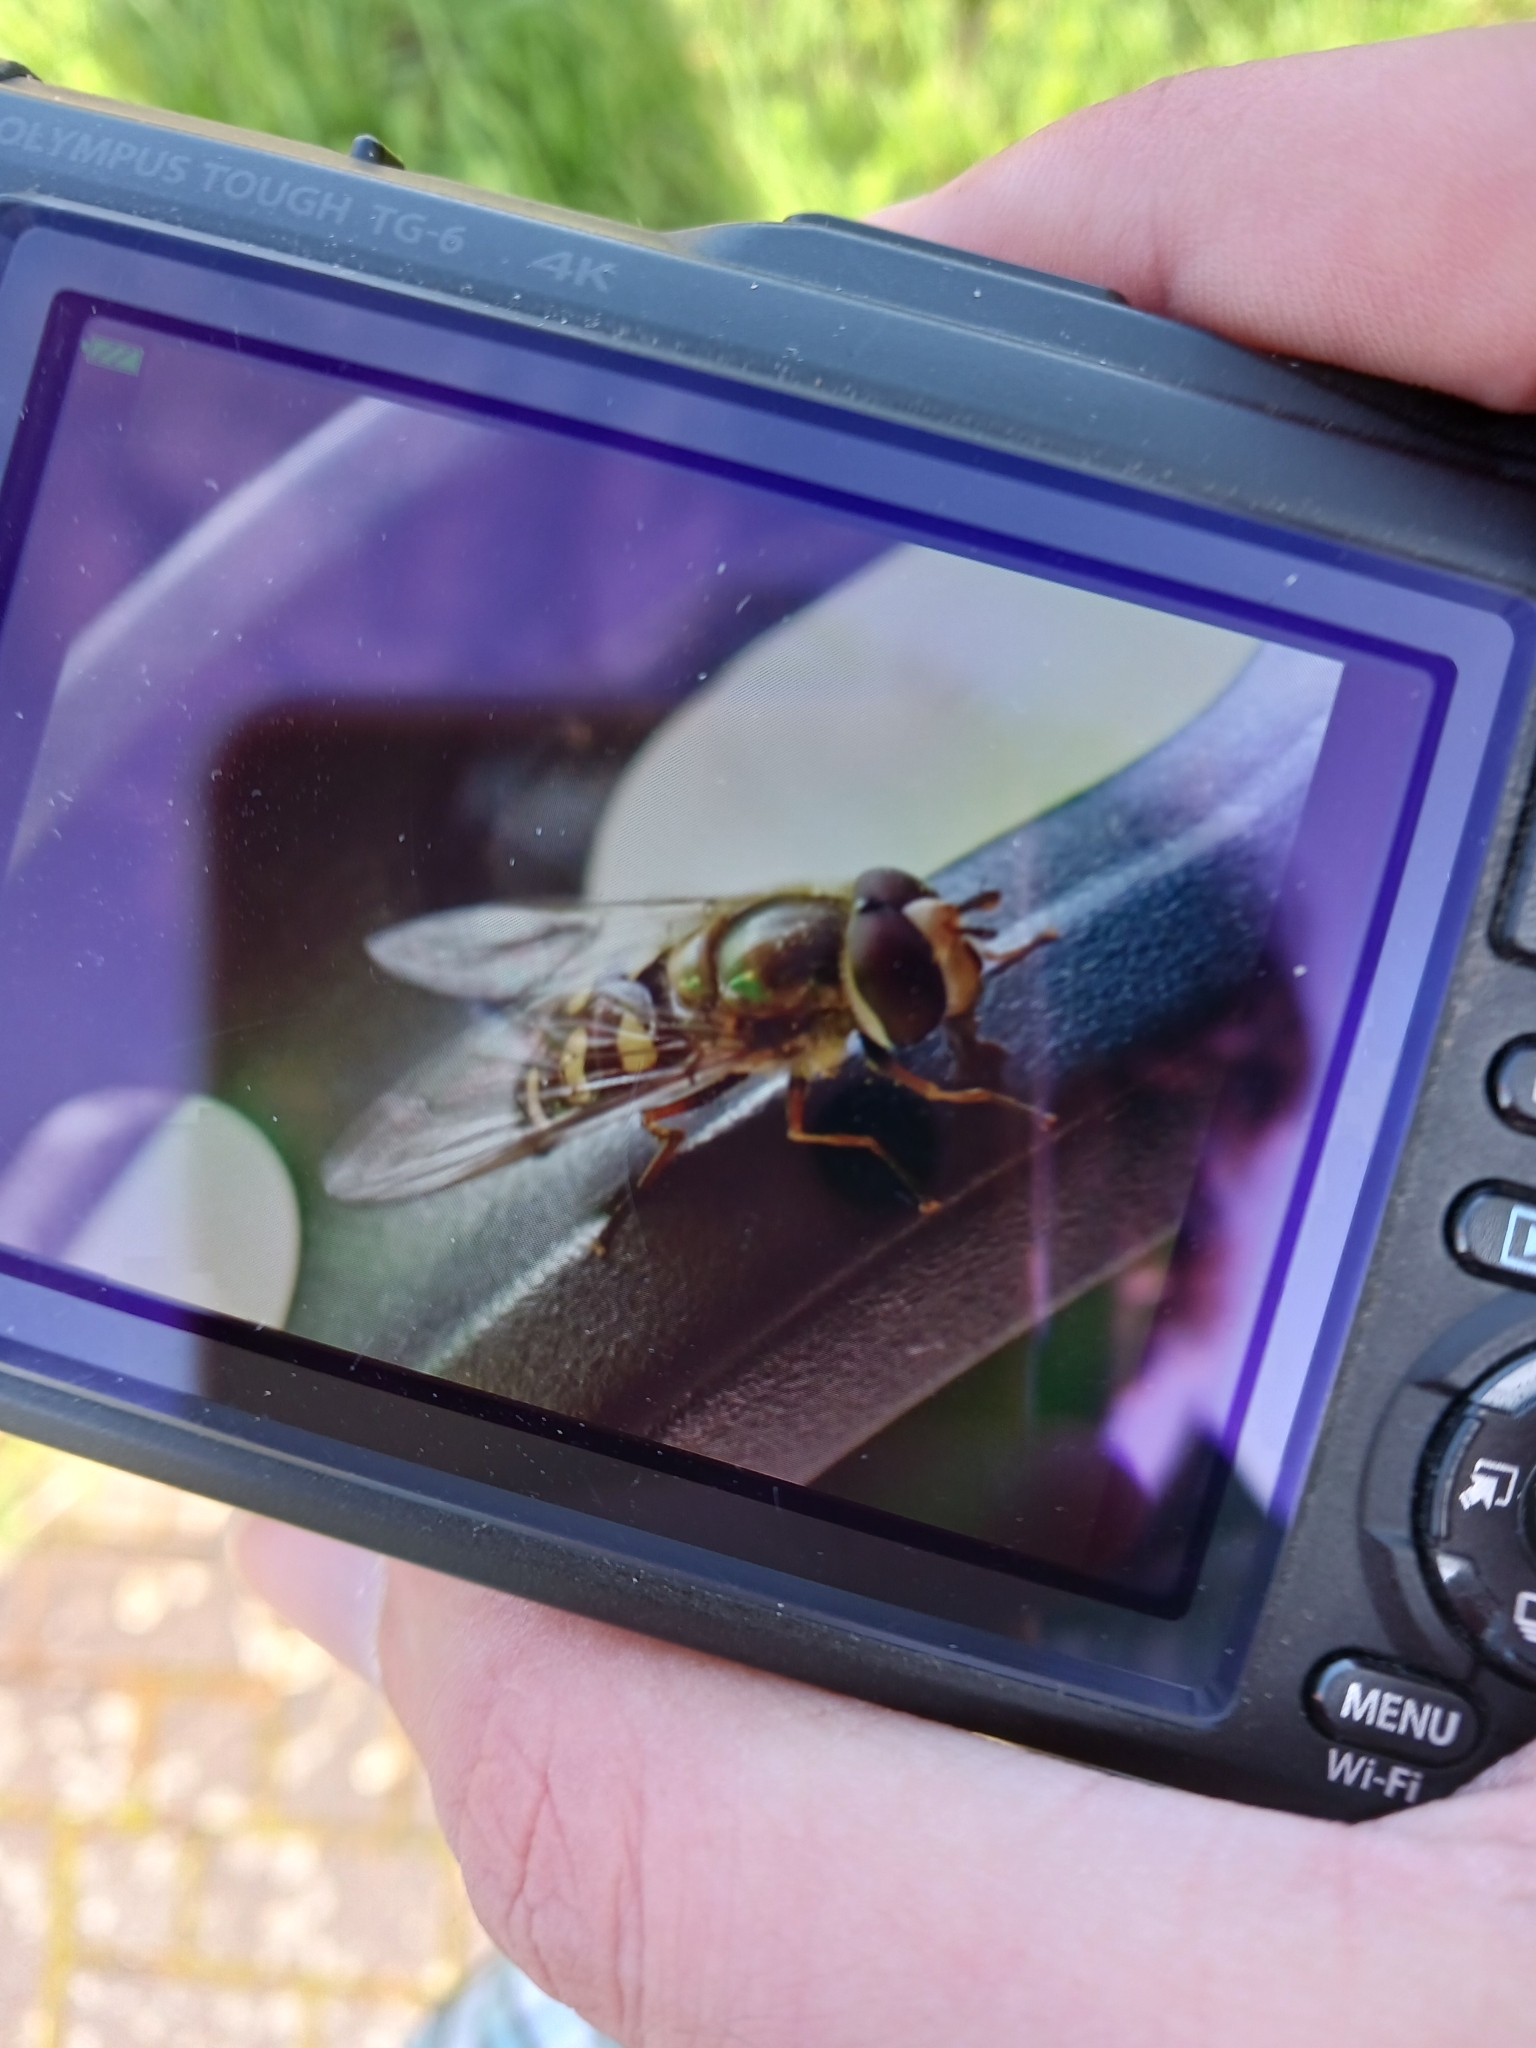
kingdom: Animalia
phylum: Arthropoda
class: Insecta
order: Diptera
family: Syrphidae
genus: Eupeodes
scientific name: Eupeodes corollae
